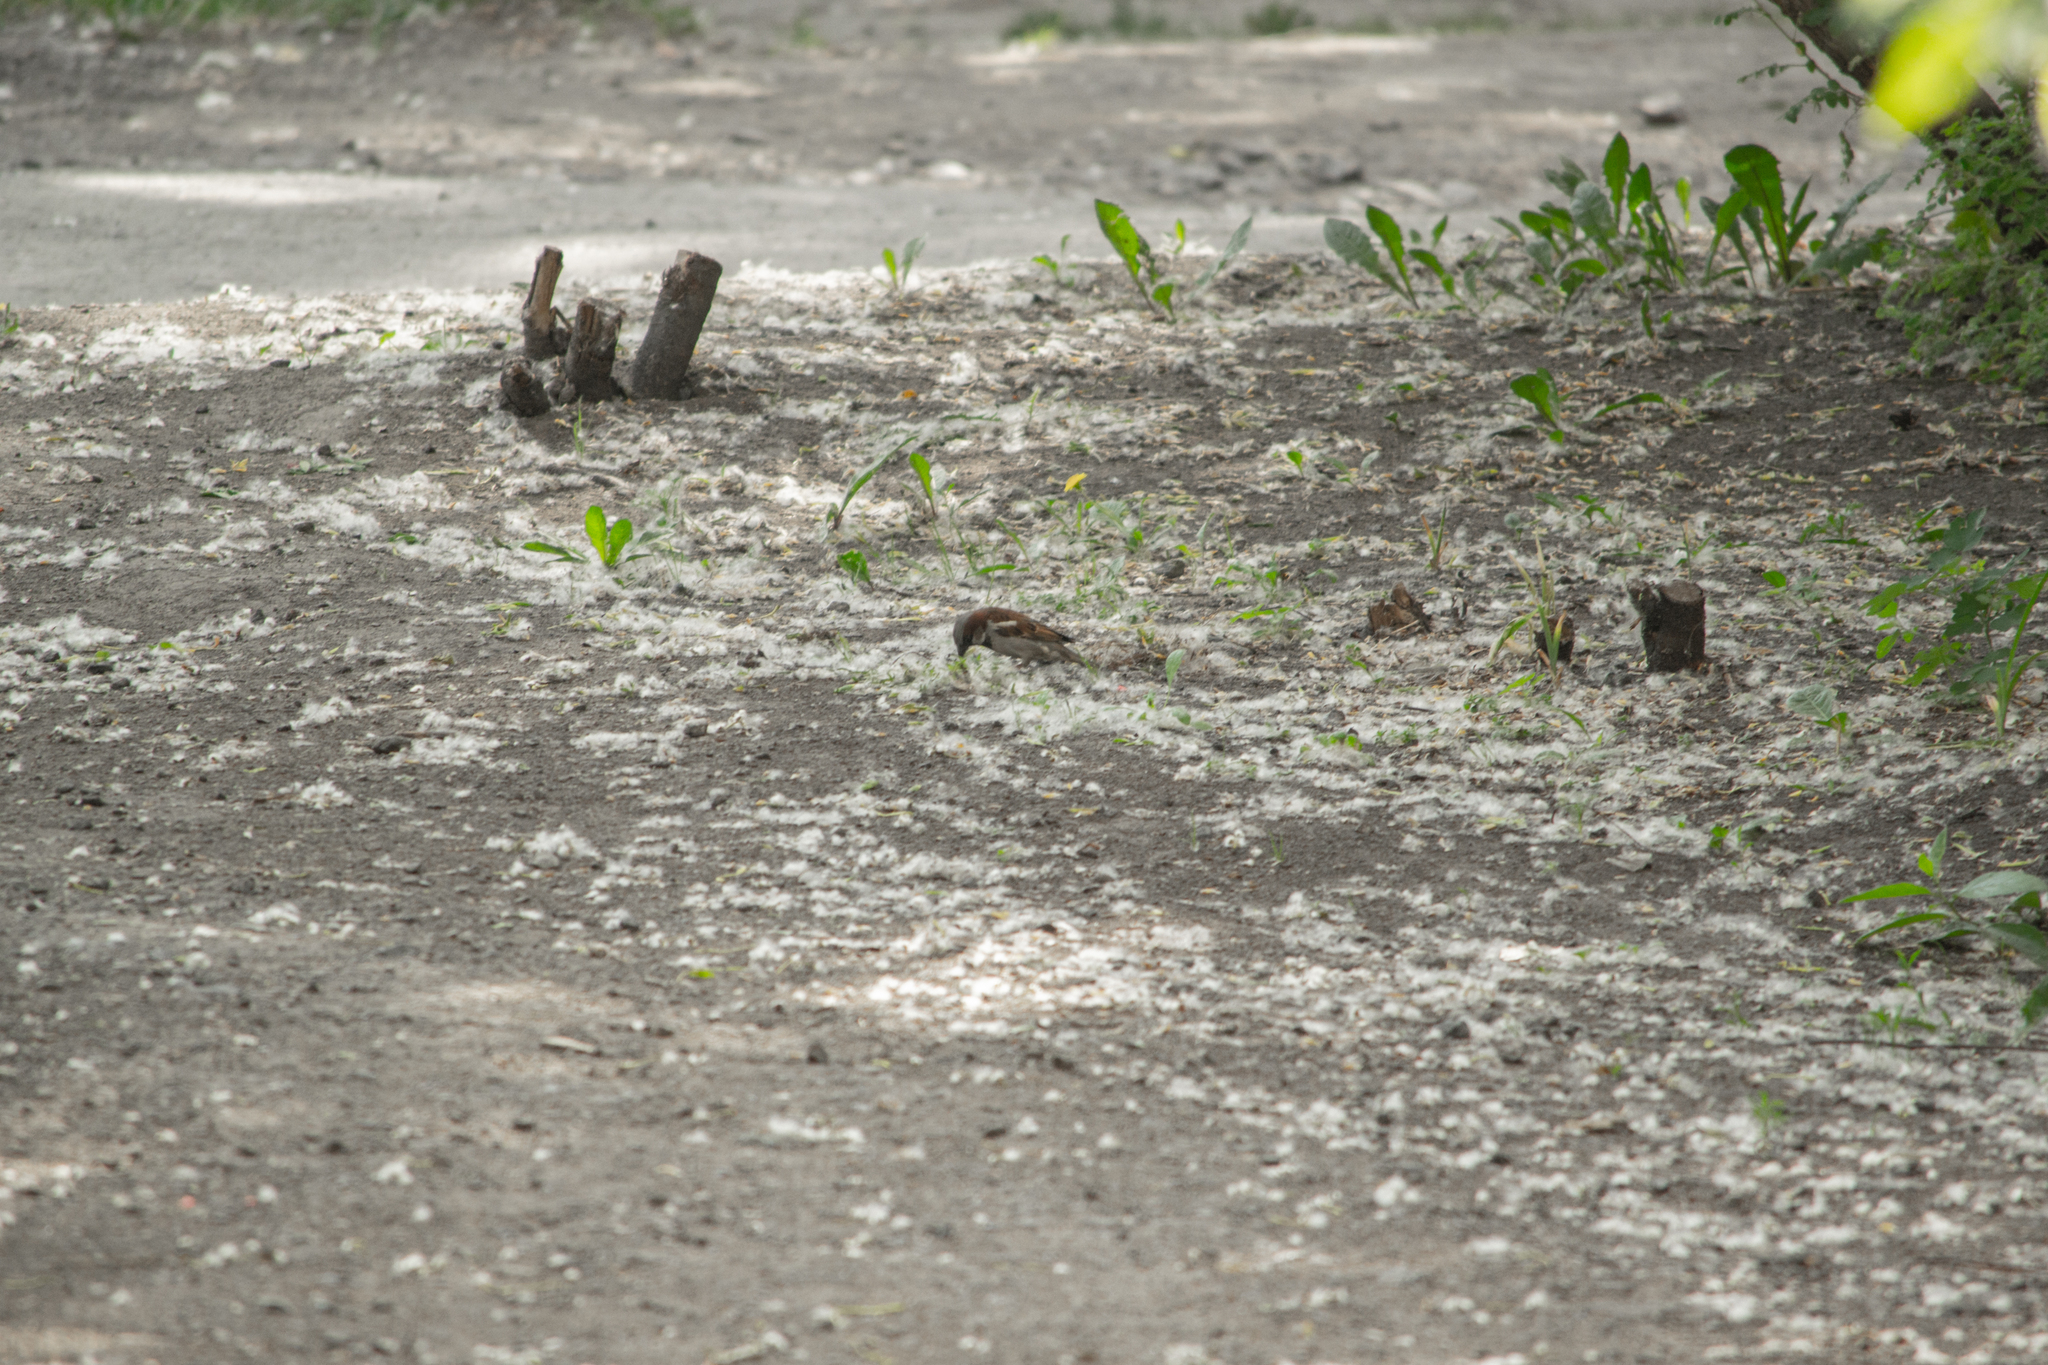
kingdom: Animalia
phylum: Chordata
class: Aves
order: Passeriformes
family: Passeridae
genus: Passer
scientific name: Passer domesticus
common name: House sparrow
